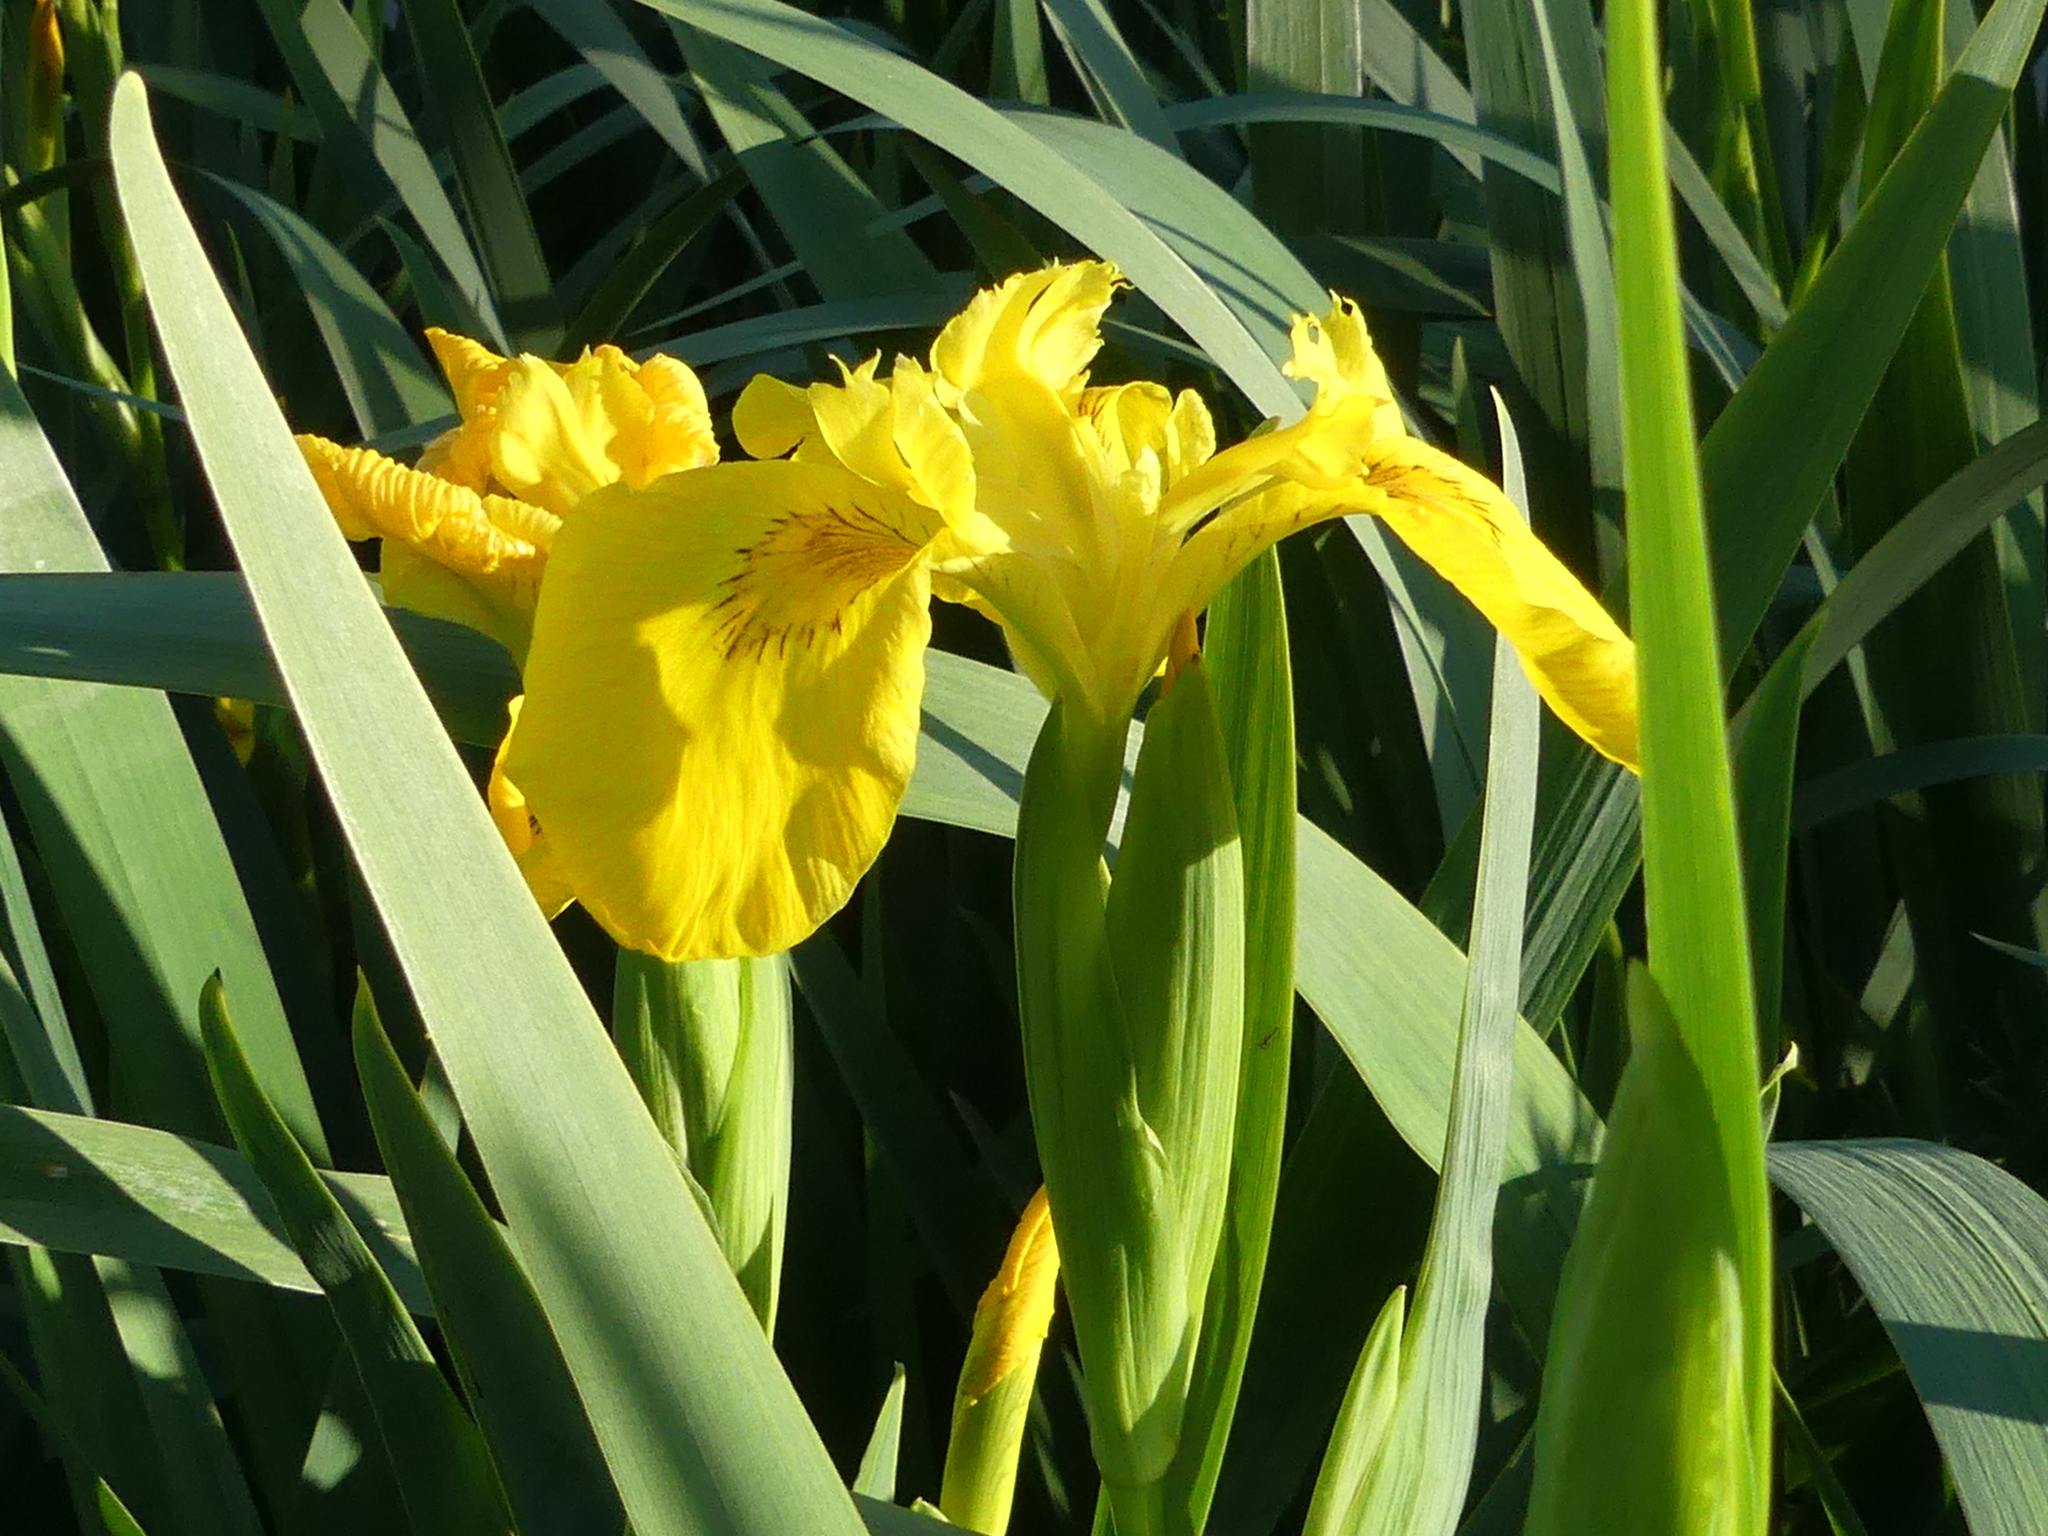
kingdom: Plantae
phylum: Tracheophyta
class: Liliopsida
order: Asparagales
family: Iridaceae
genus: Iris
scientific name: Iris pseudacorus
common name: Yellow flag
